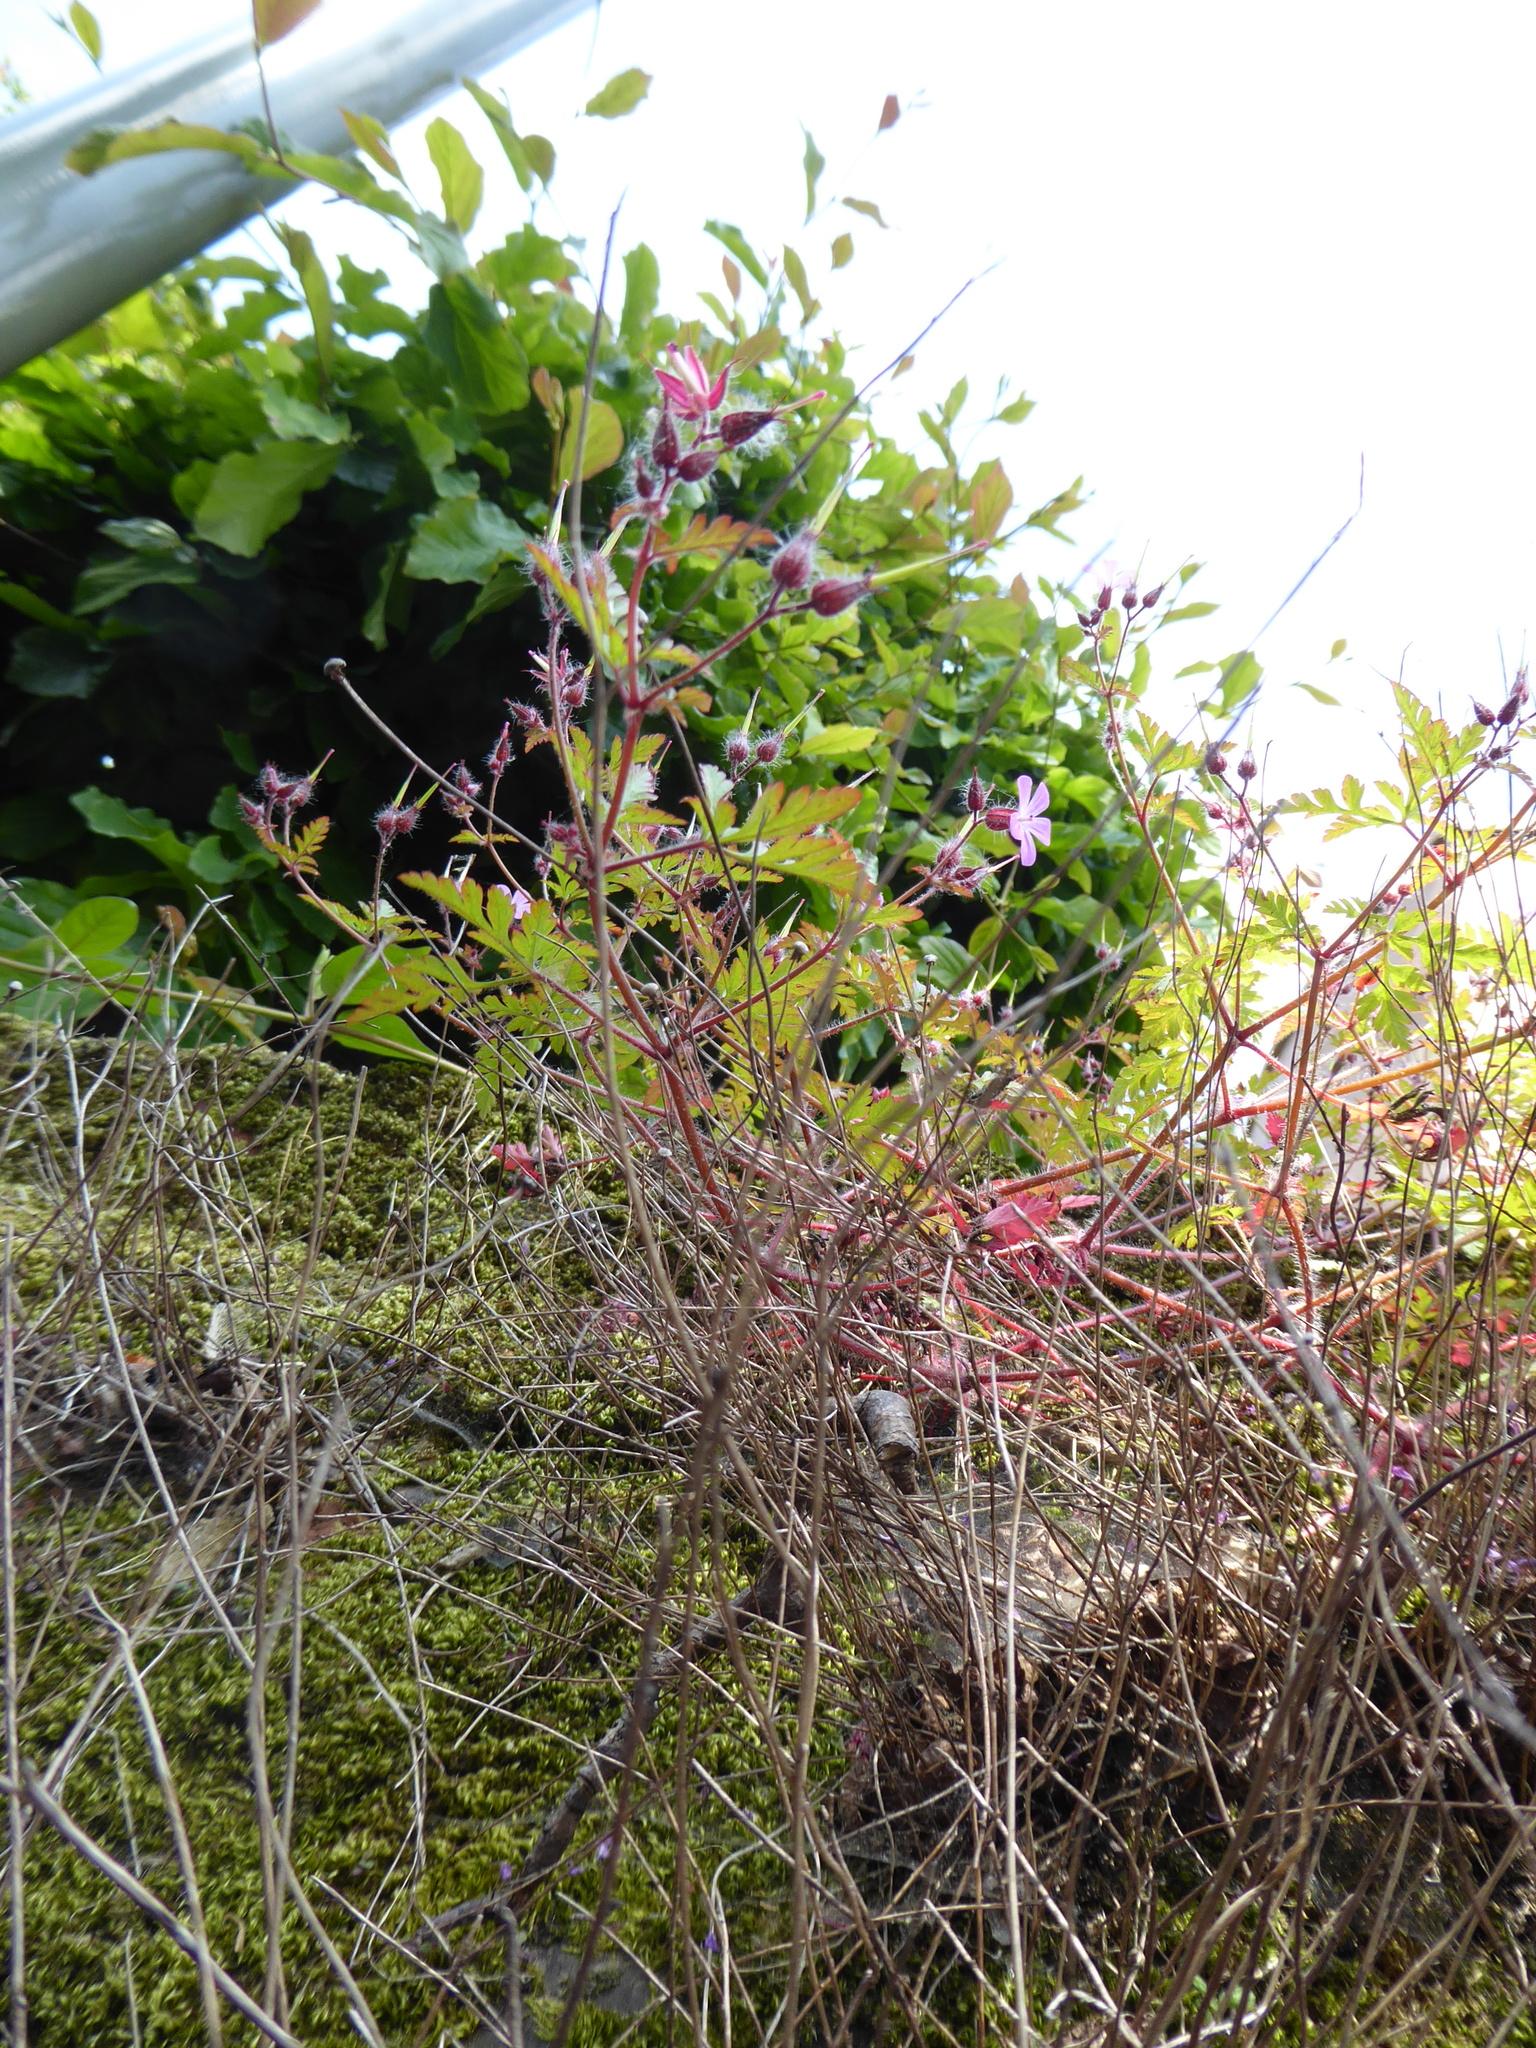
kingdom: Plantae
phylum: Tracheophyta
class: Magnoliopsida
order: Geraniales
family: Geraniaceae
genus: Geranium
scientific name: Geranium robertianum
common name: Herb-robert
